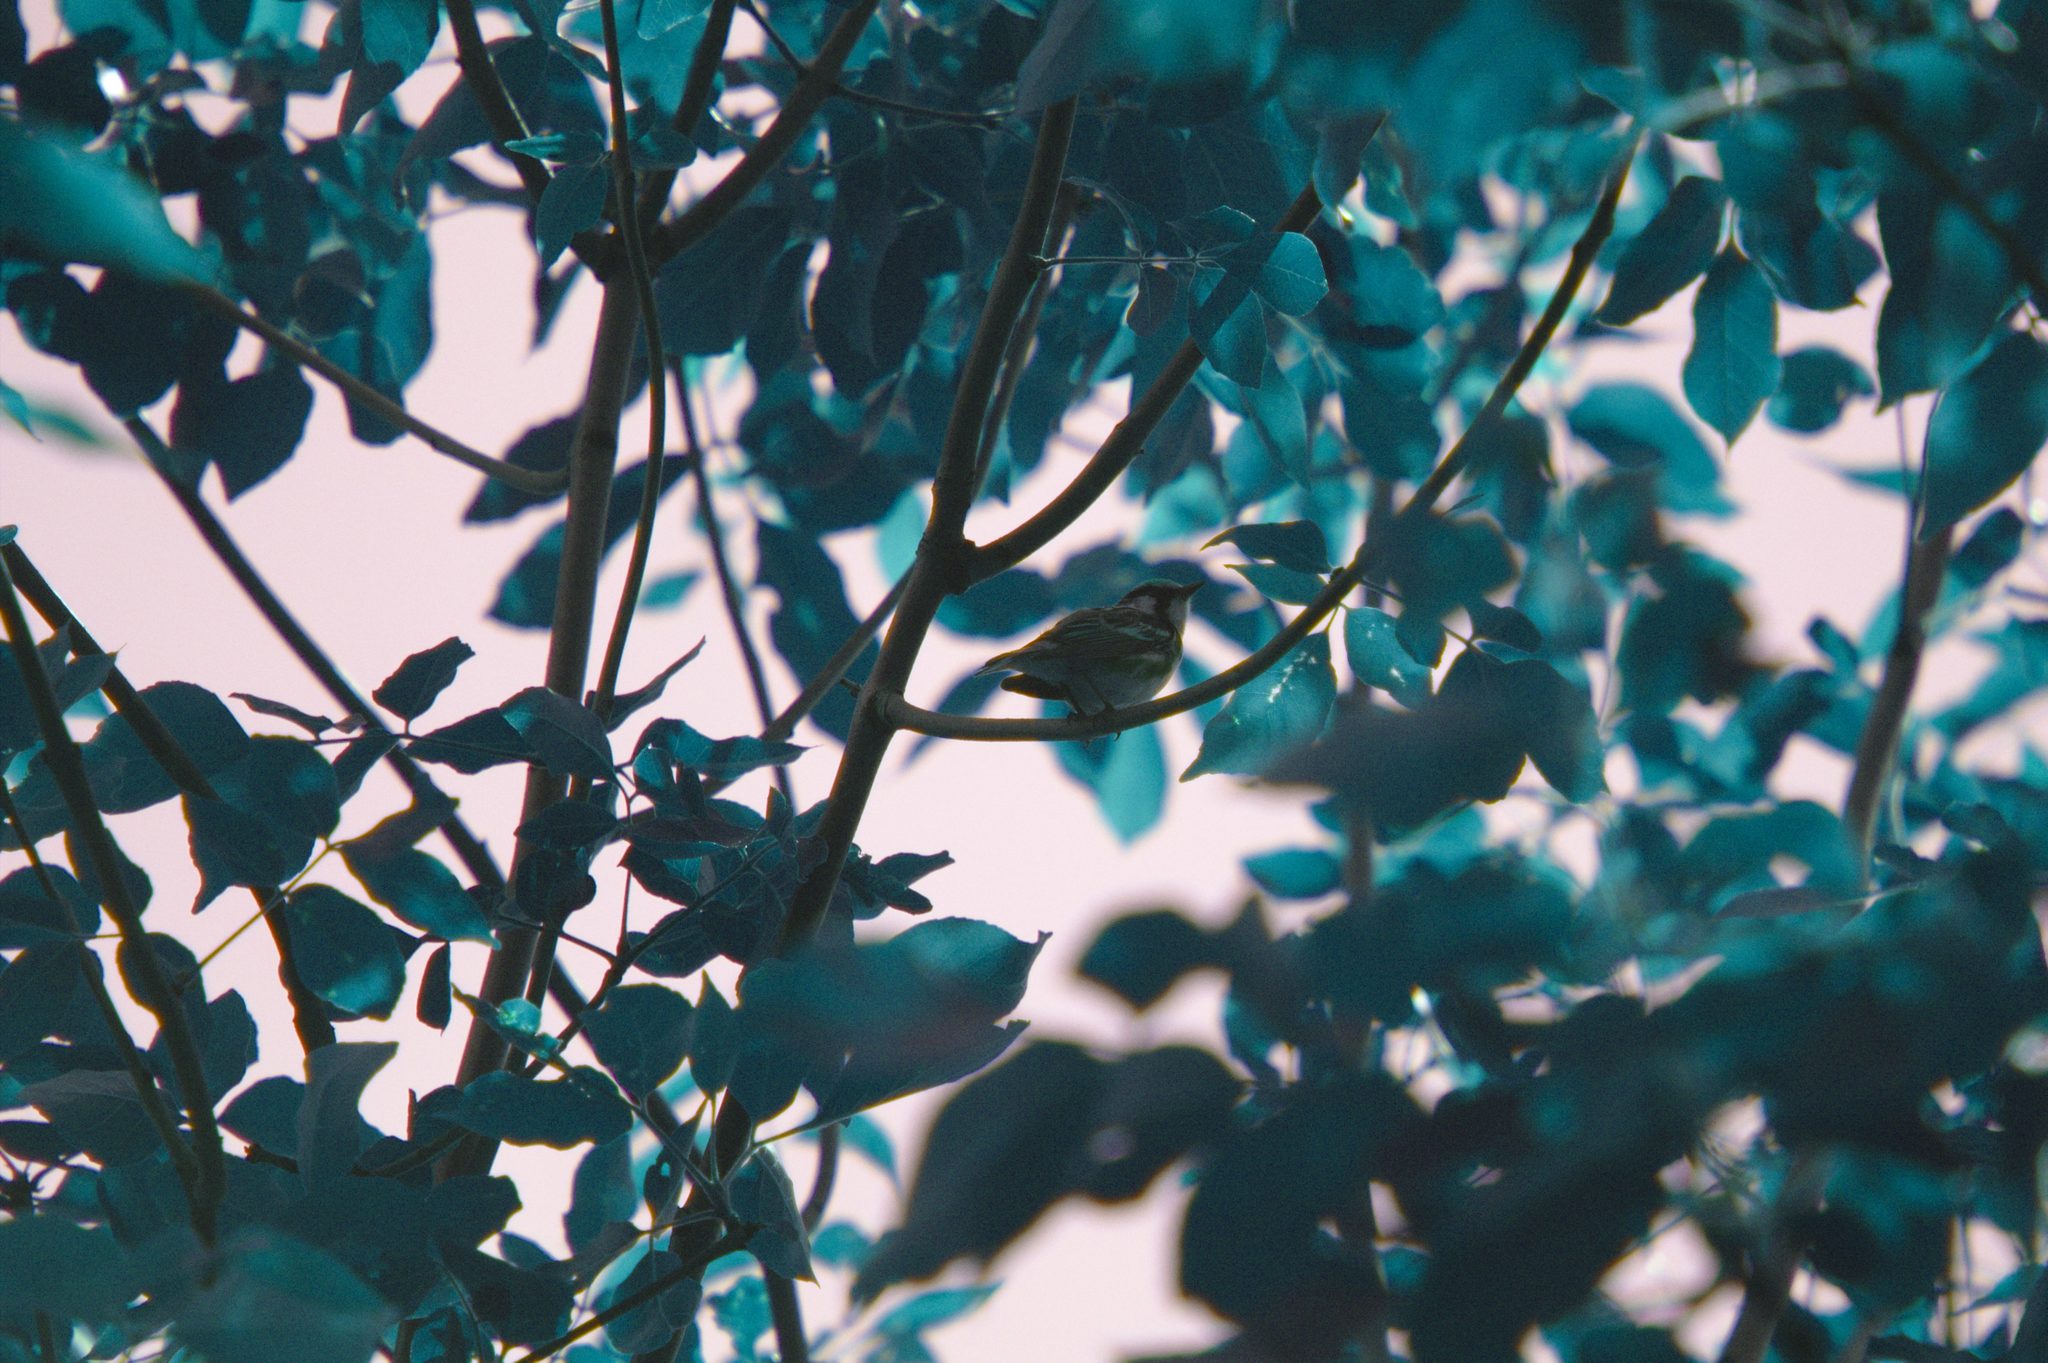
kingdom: Animalia
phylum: Chordata
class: Aves
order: Passeriformes
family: Parulidae
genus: Setophaga
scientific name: Setophaga pensylvanica
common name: Chestnut-sided warbler
